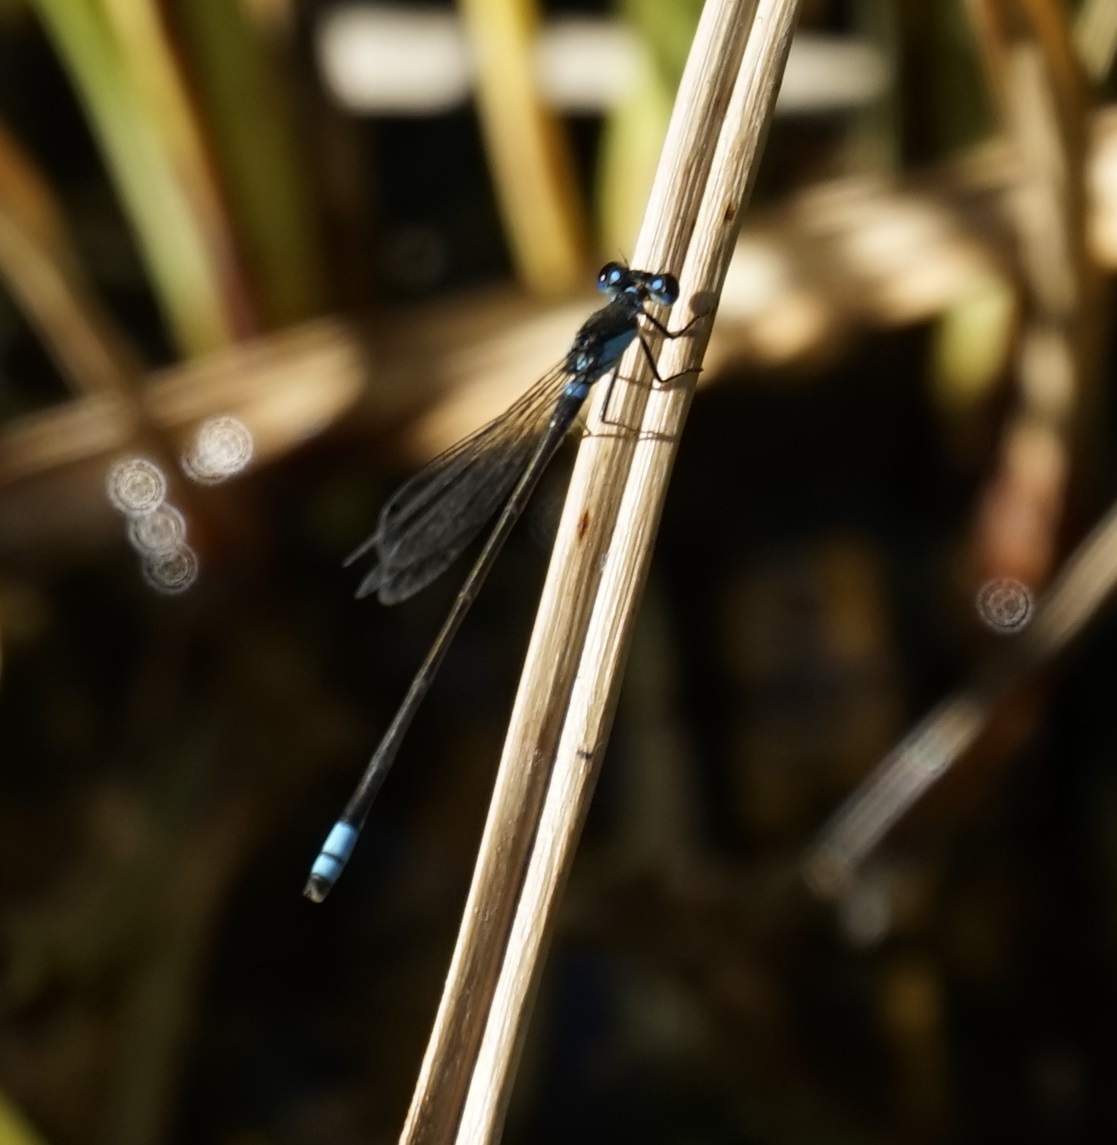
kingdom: Animalia
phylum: Arthropoda
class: Insecta
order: Odonata
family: Coenagrionidae
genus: Ischnura
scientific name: Ischnura heterosticta
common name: Common bluetail
